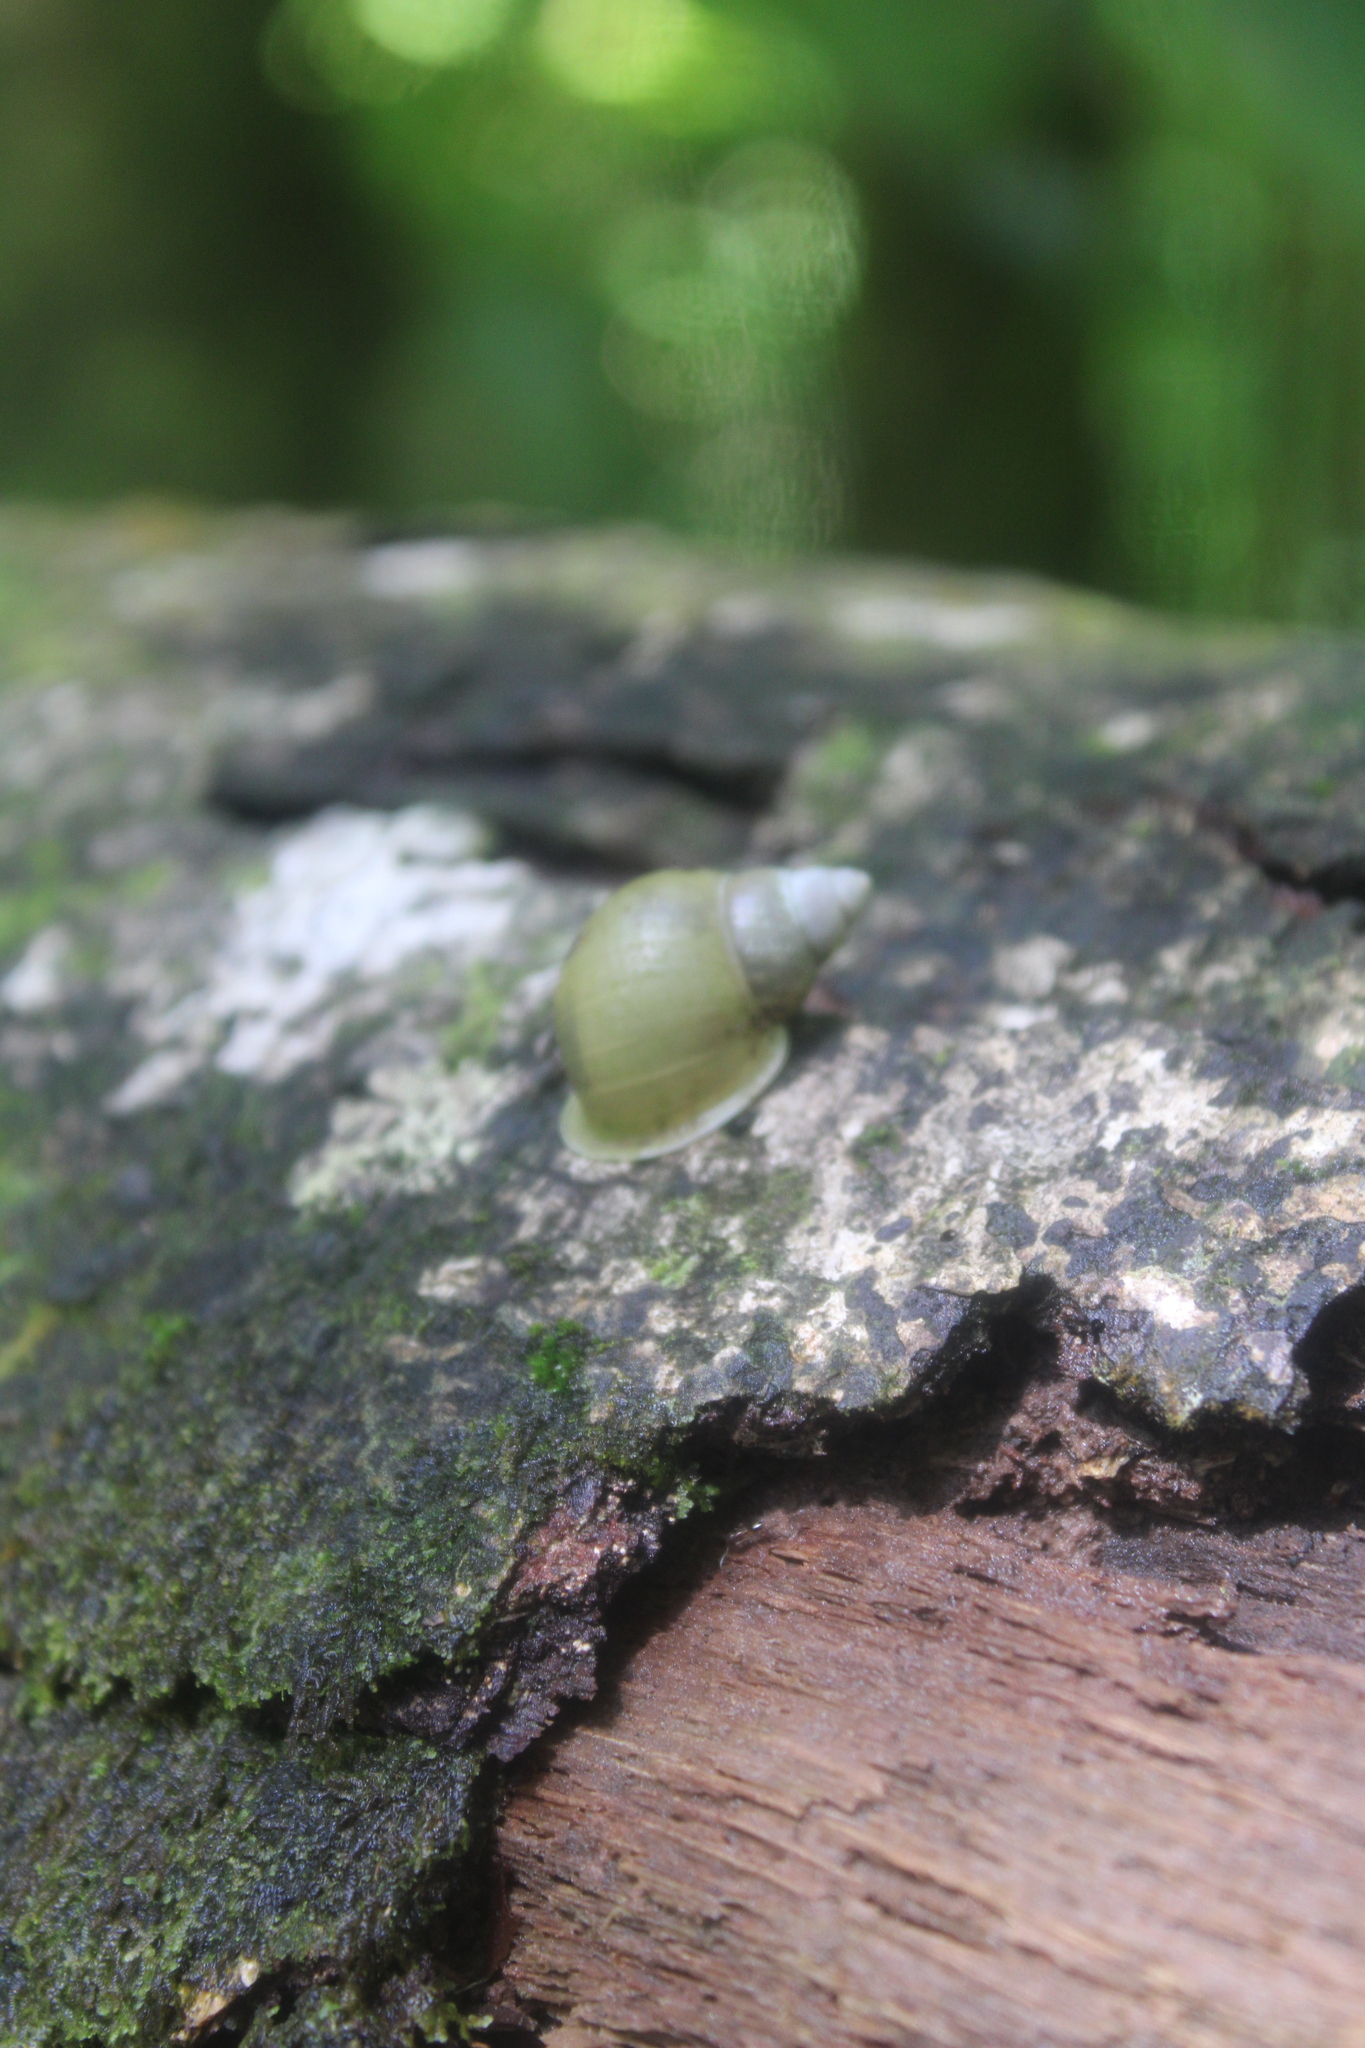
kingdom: Animalia
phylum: Mollusca
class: Gastropoda
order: Stylommatophora
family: Partulidae
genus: Samoana
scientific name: Samoana conica
